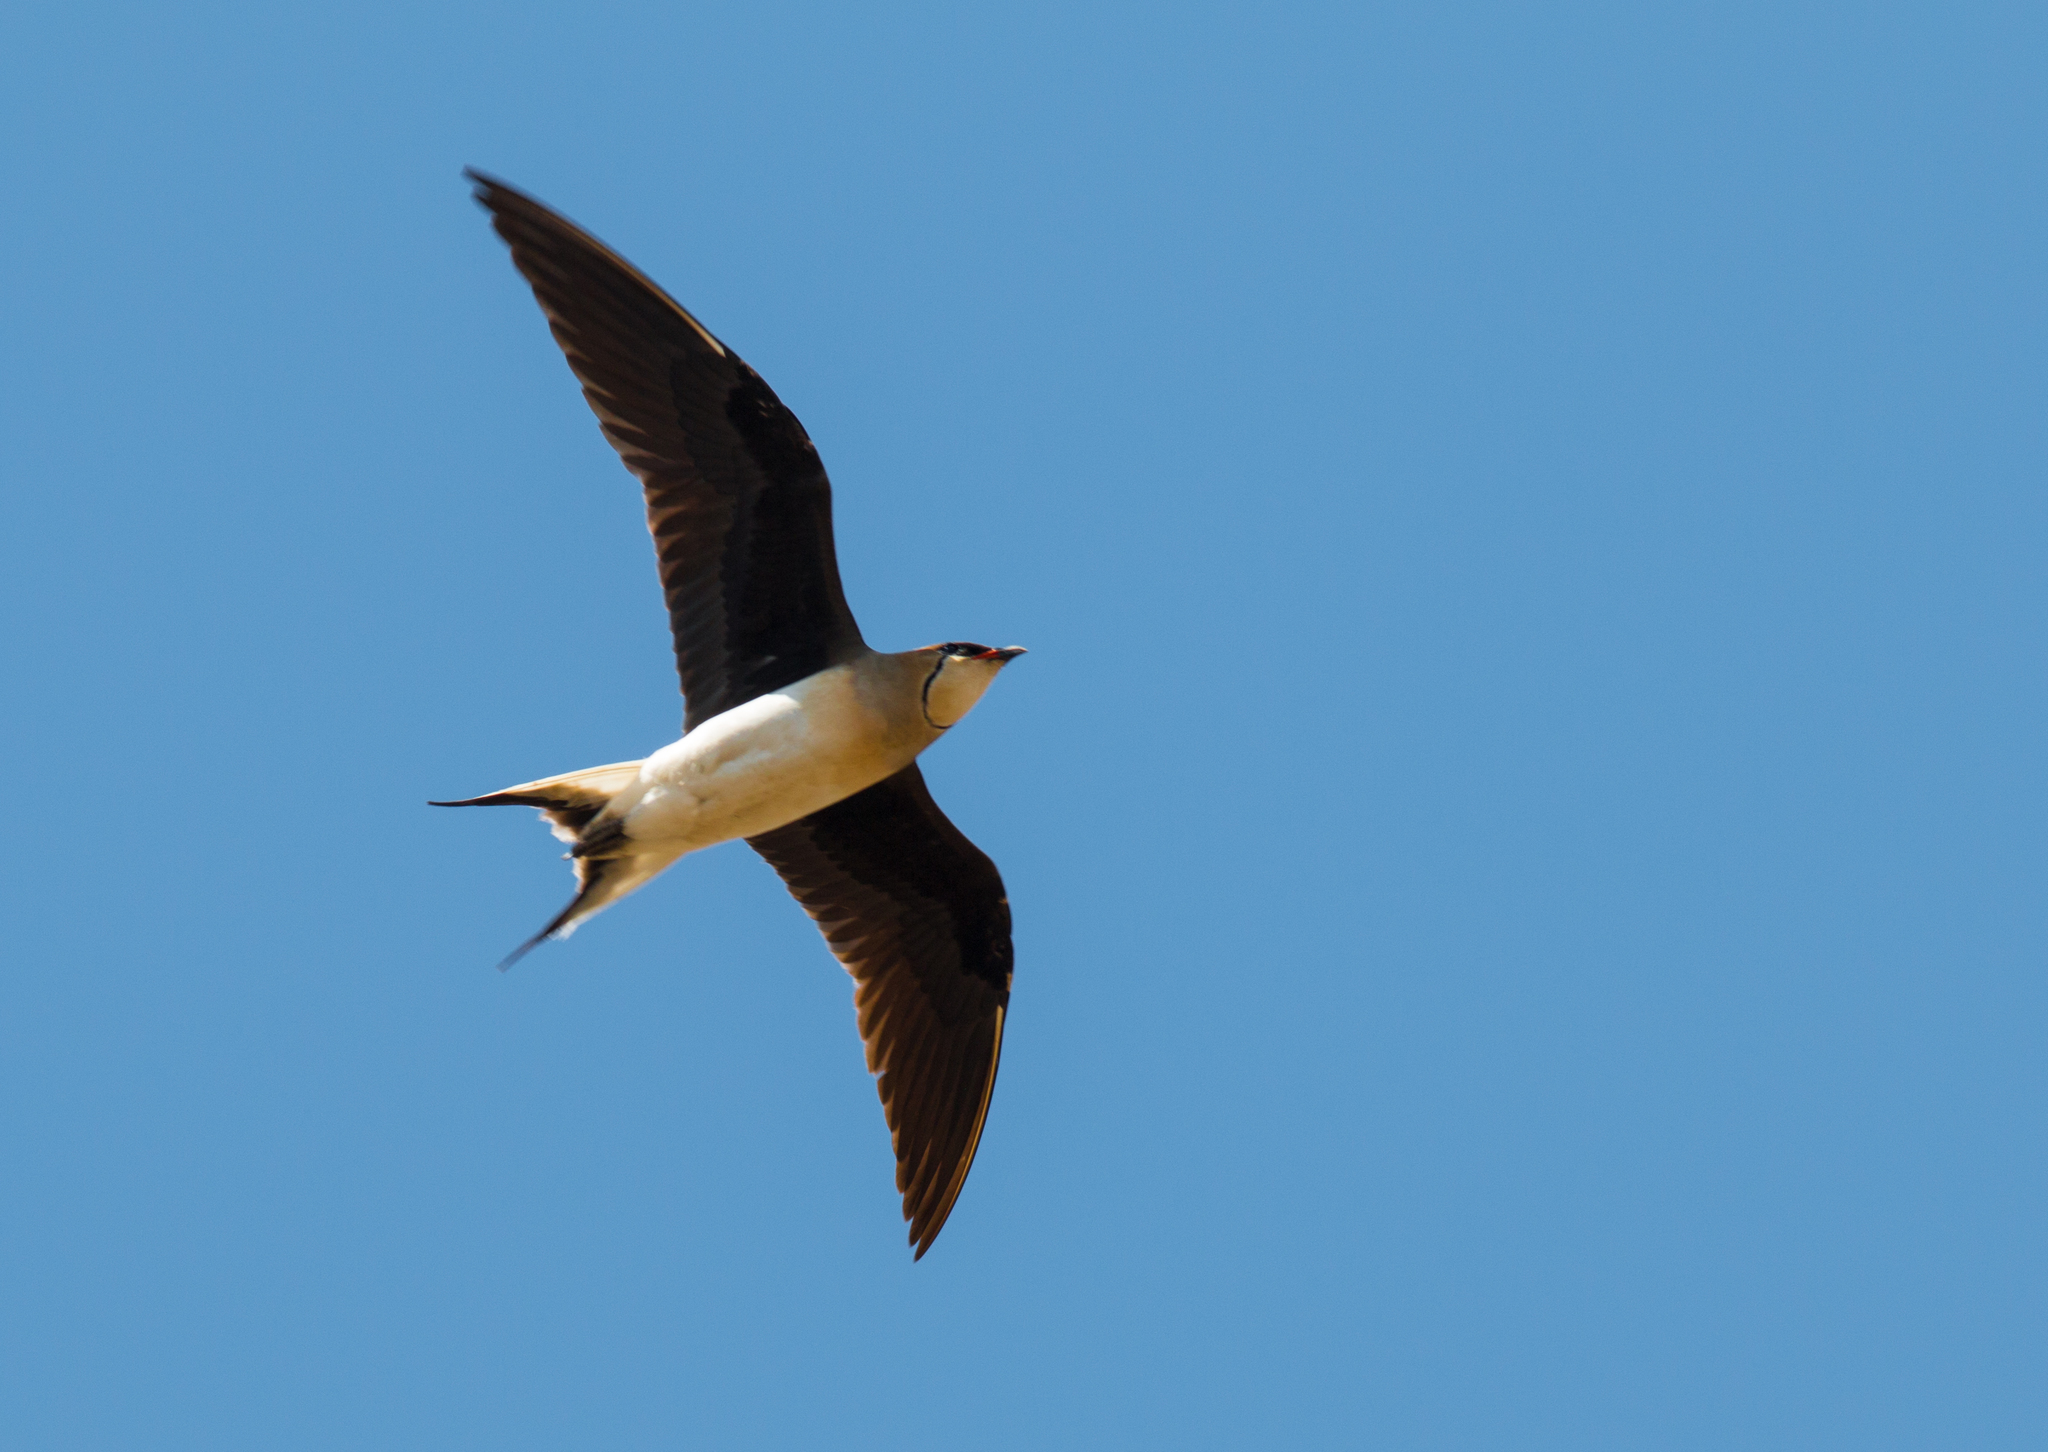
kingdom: Animalia
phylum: Chordata
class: Aves
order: Charadriiformes
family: Glareolidae
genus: Glareola
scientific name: Glareola nordmanni
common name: Black-winged pratincole
